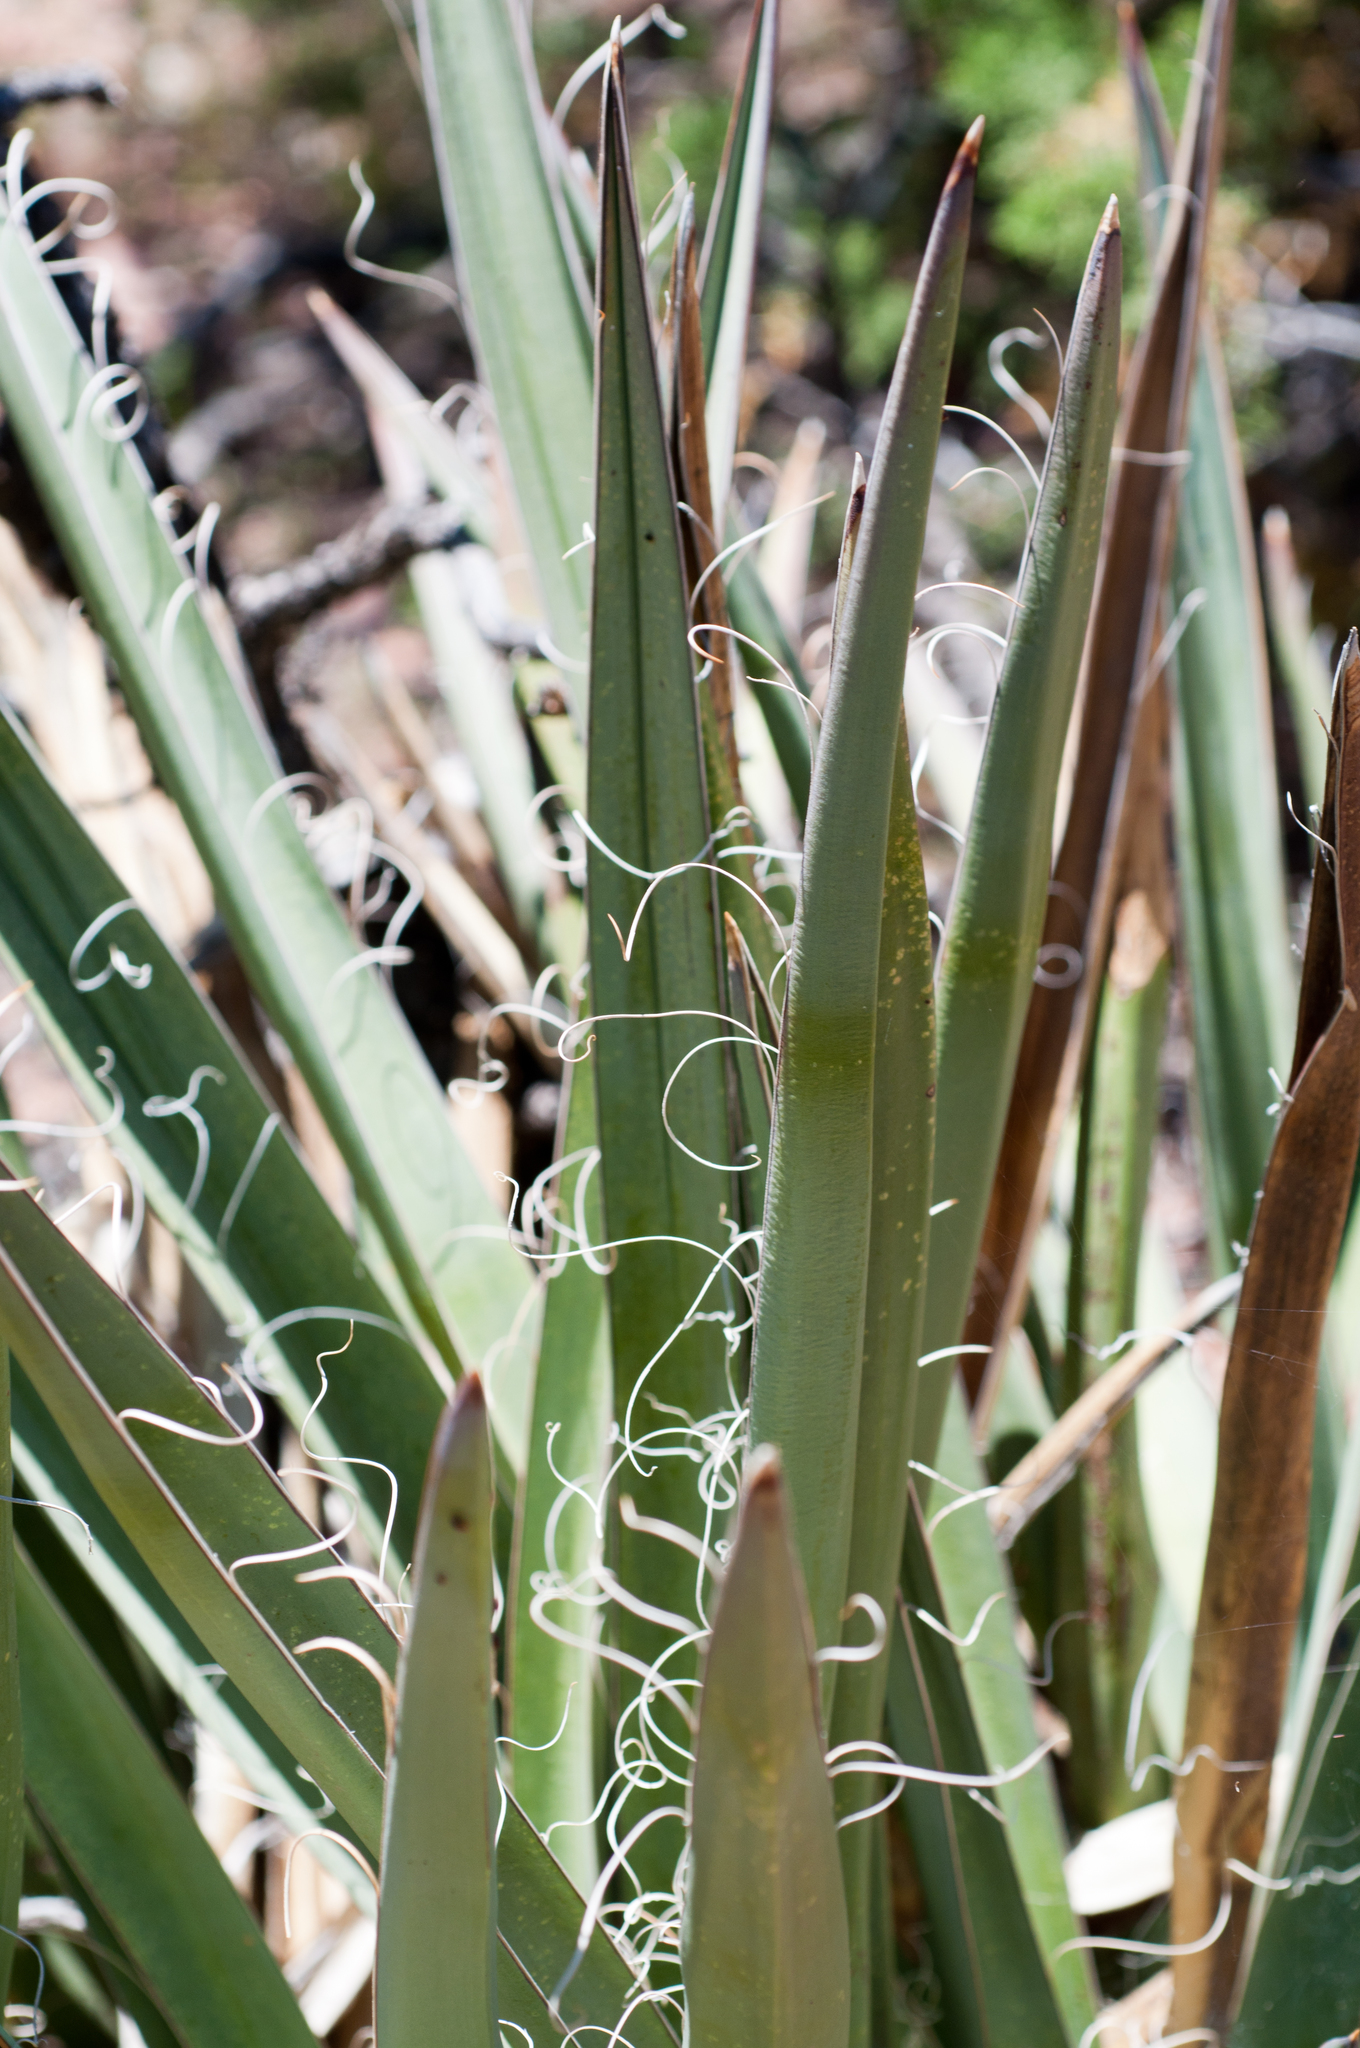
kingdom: Plantae
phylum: Tracheophyta
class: Liliopsida
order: Asparagales
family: Asparagaceae
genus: Yucca
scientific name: Yucca baccata
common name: Banana yucca
